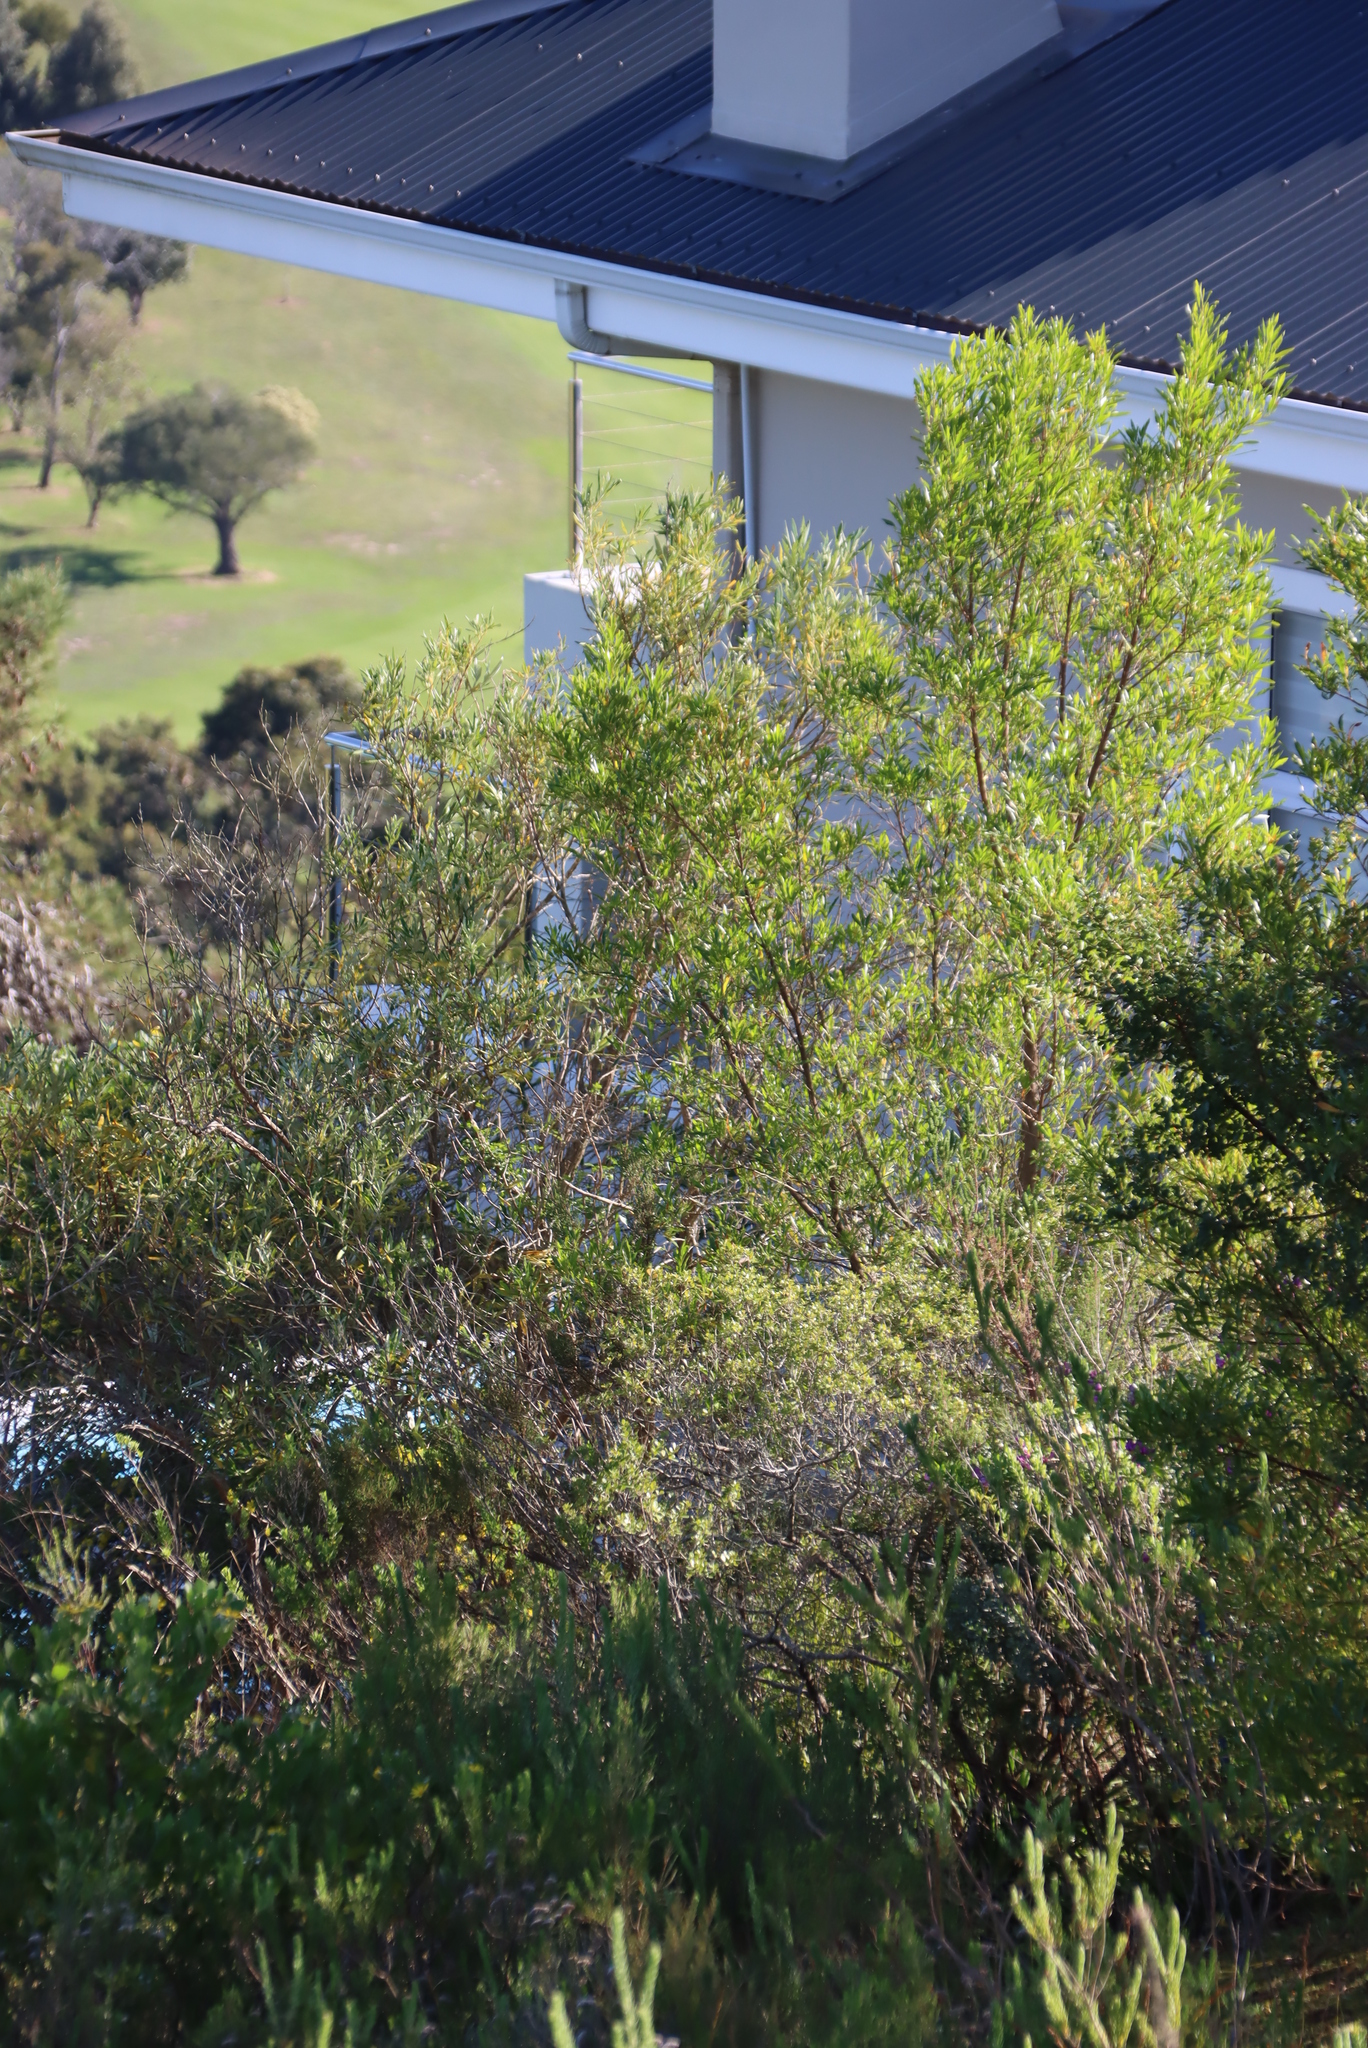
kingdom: Plantae
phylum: Tracheophyta
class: Magnoliopsida
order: Sapindales
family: Sapindaceae
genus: Dodonaea
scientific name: Dodonaea viscosa
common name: Hopbush
